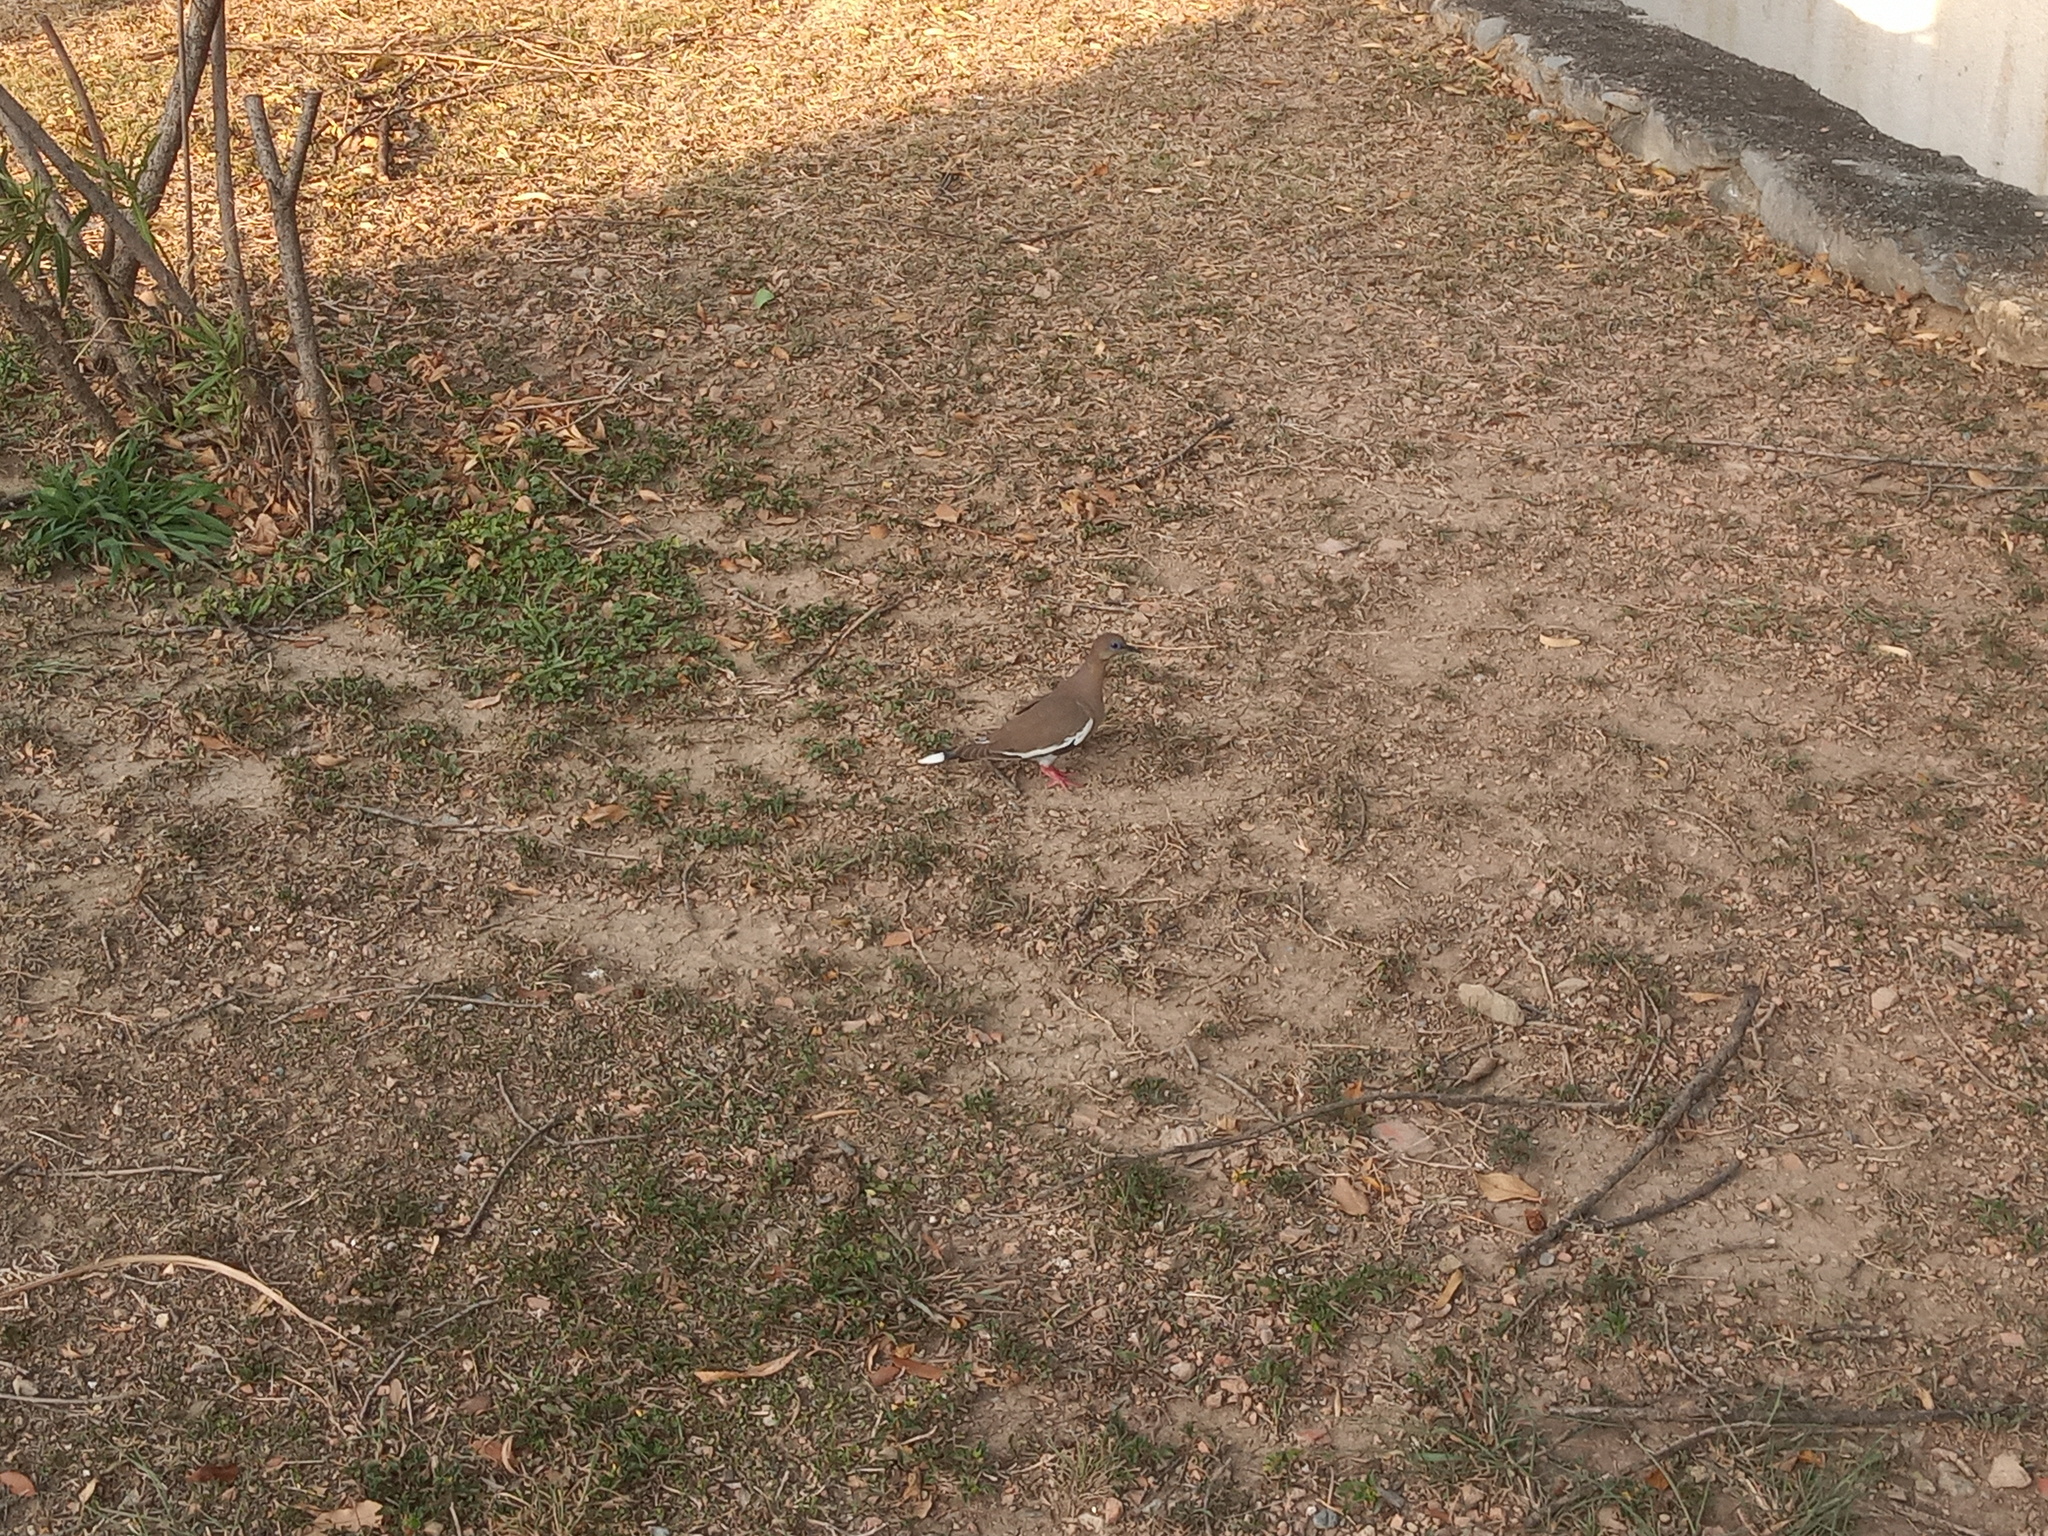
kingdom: Animalia
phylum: Chordata
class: Aves
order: Columbiformes
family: Columbidae
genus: Zenaida
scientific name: Zenaida asiatica
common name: White-winged dove
